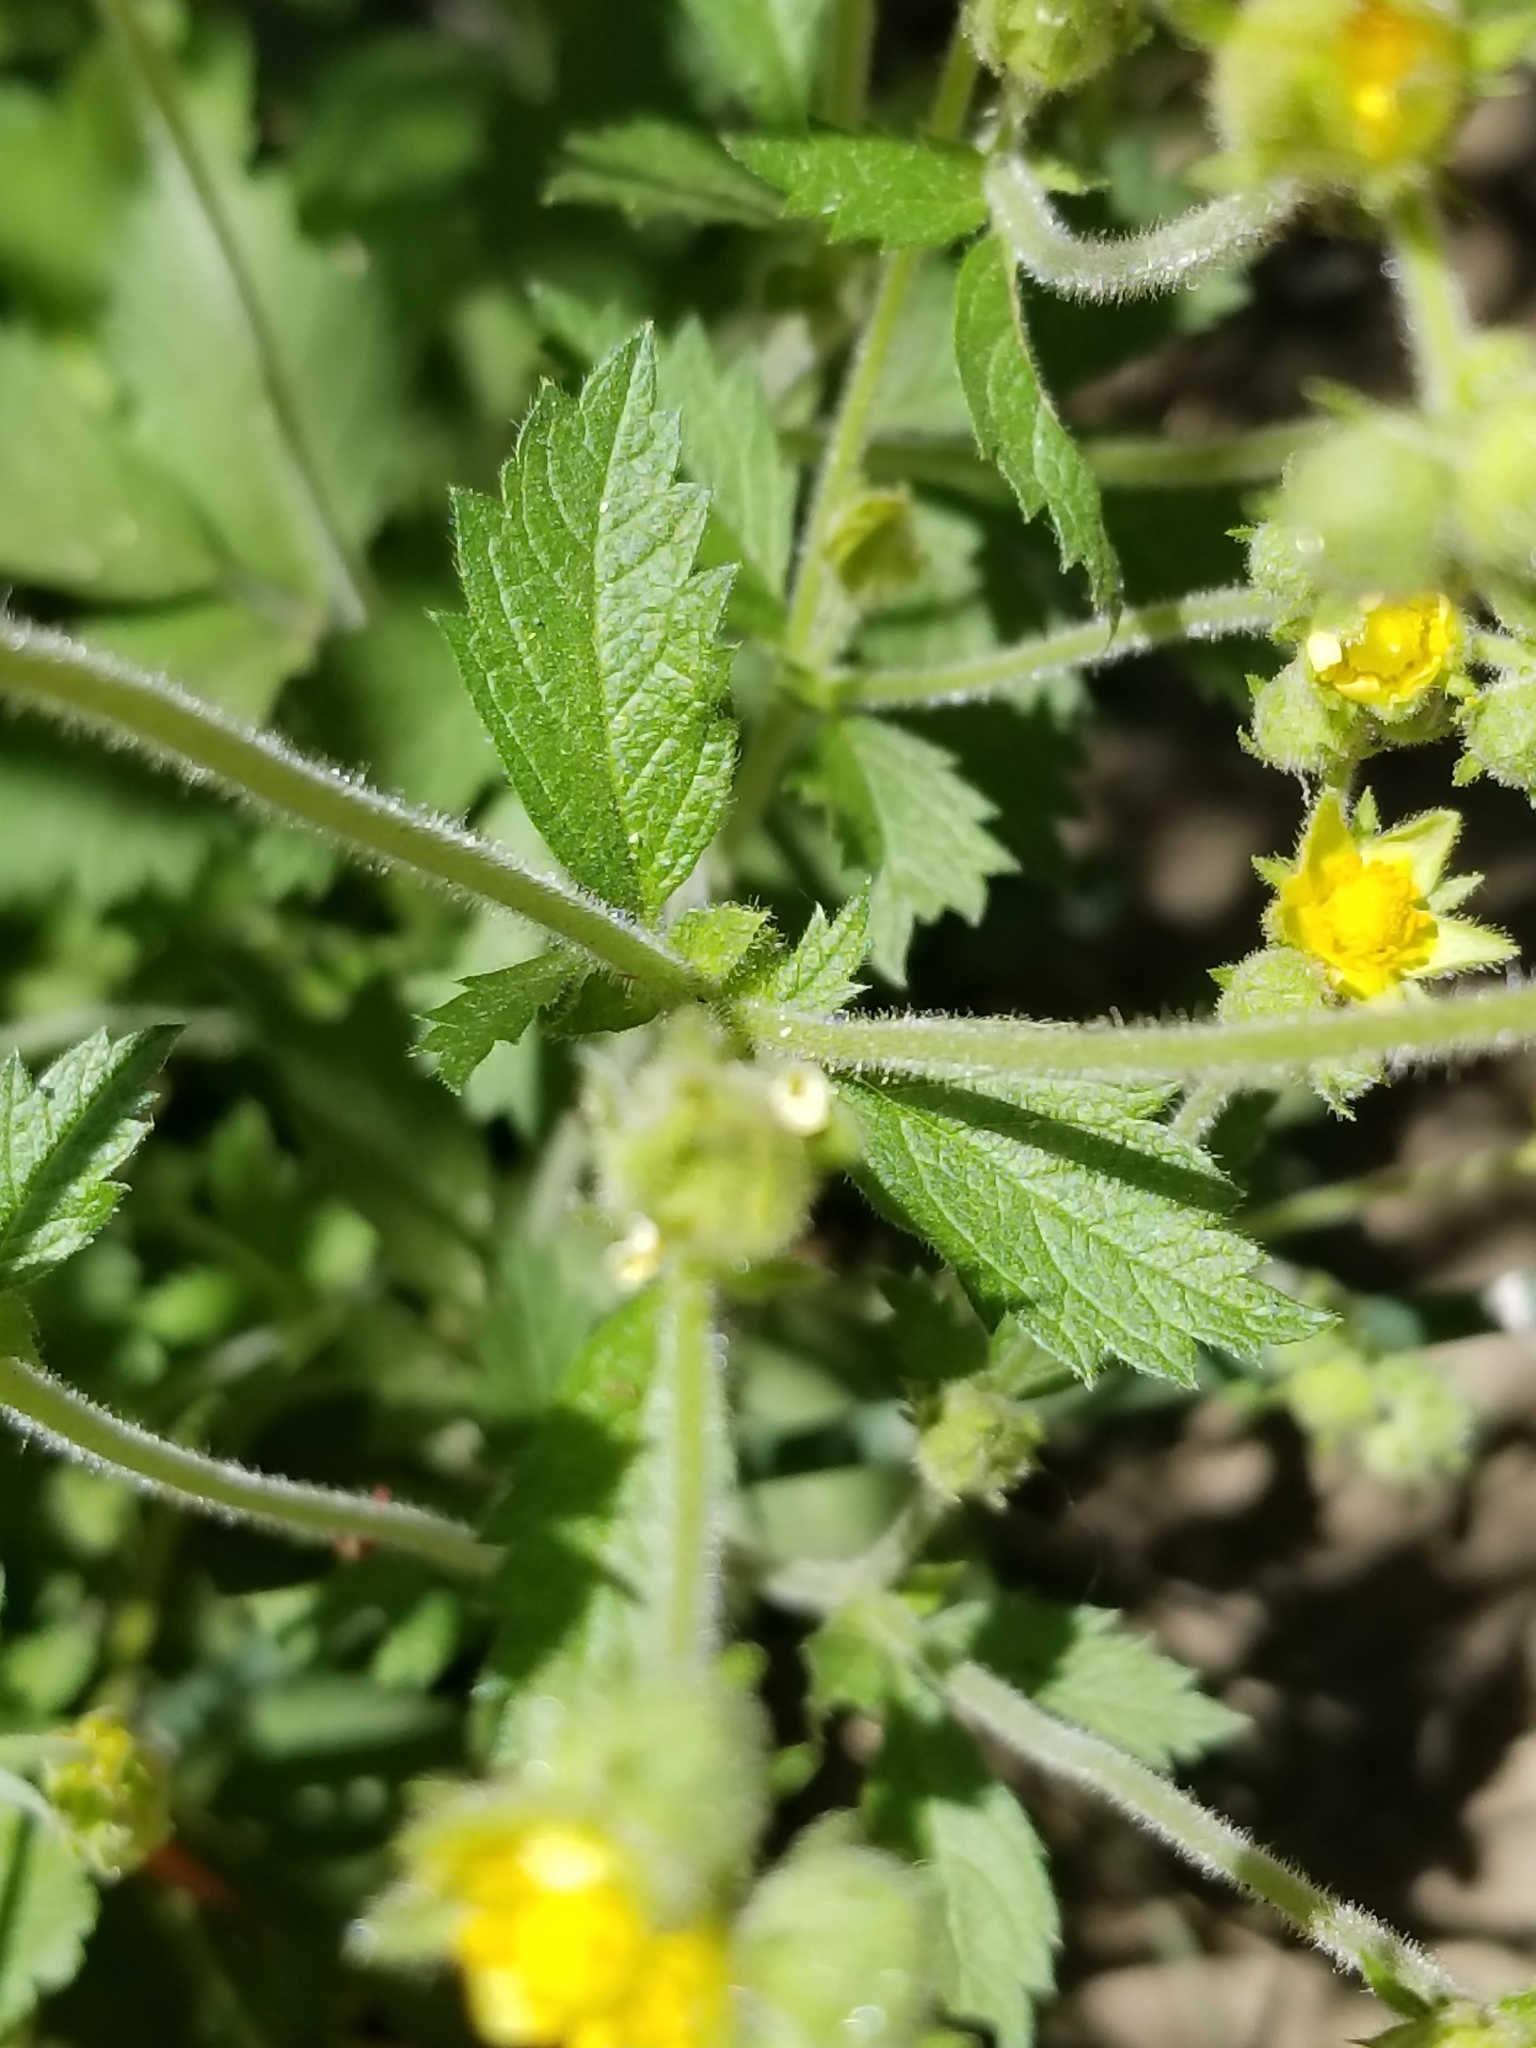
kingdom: Plantae
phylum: Tracheophyta
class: Magnoliopsida
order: Rosales
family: Rosaceae
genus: Drymocallis
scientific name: Drymocallis glandulosa
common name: Sticky cinquefoil
